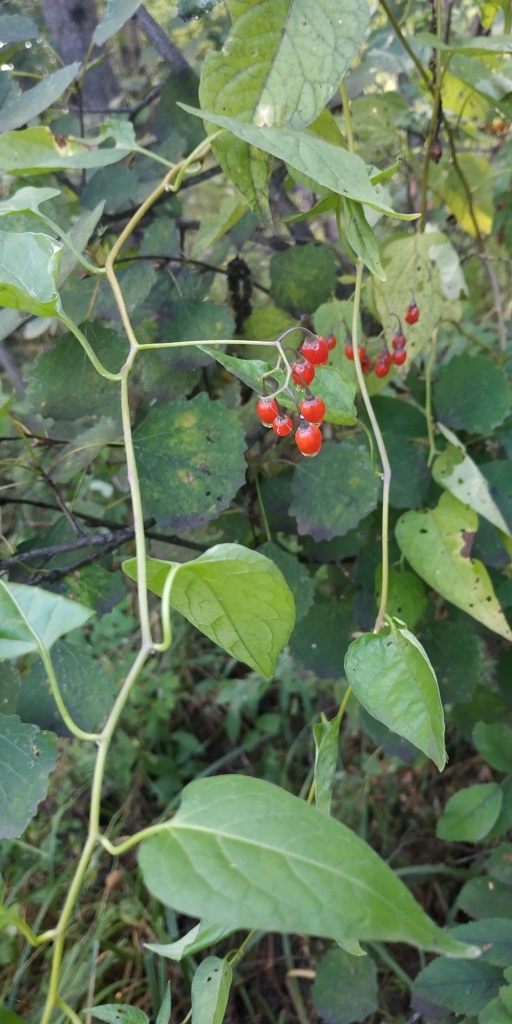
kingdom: Plantae
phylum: Tracheophyta
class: Magnoliopsida
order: Solanales
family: Solanaceae
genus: Solanum
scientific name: Solanum dulcamara
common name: Climbing nightshade
